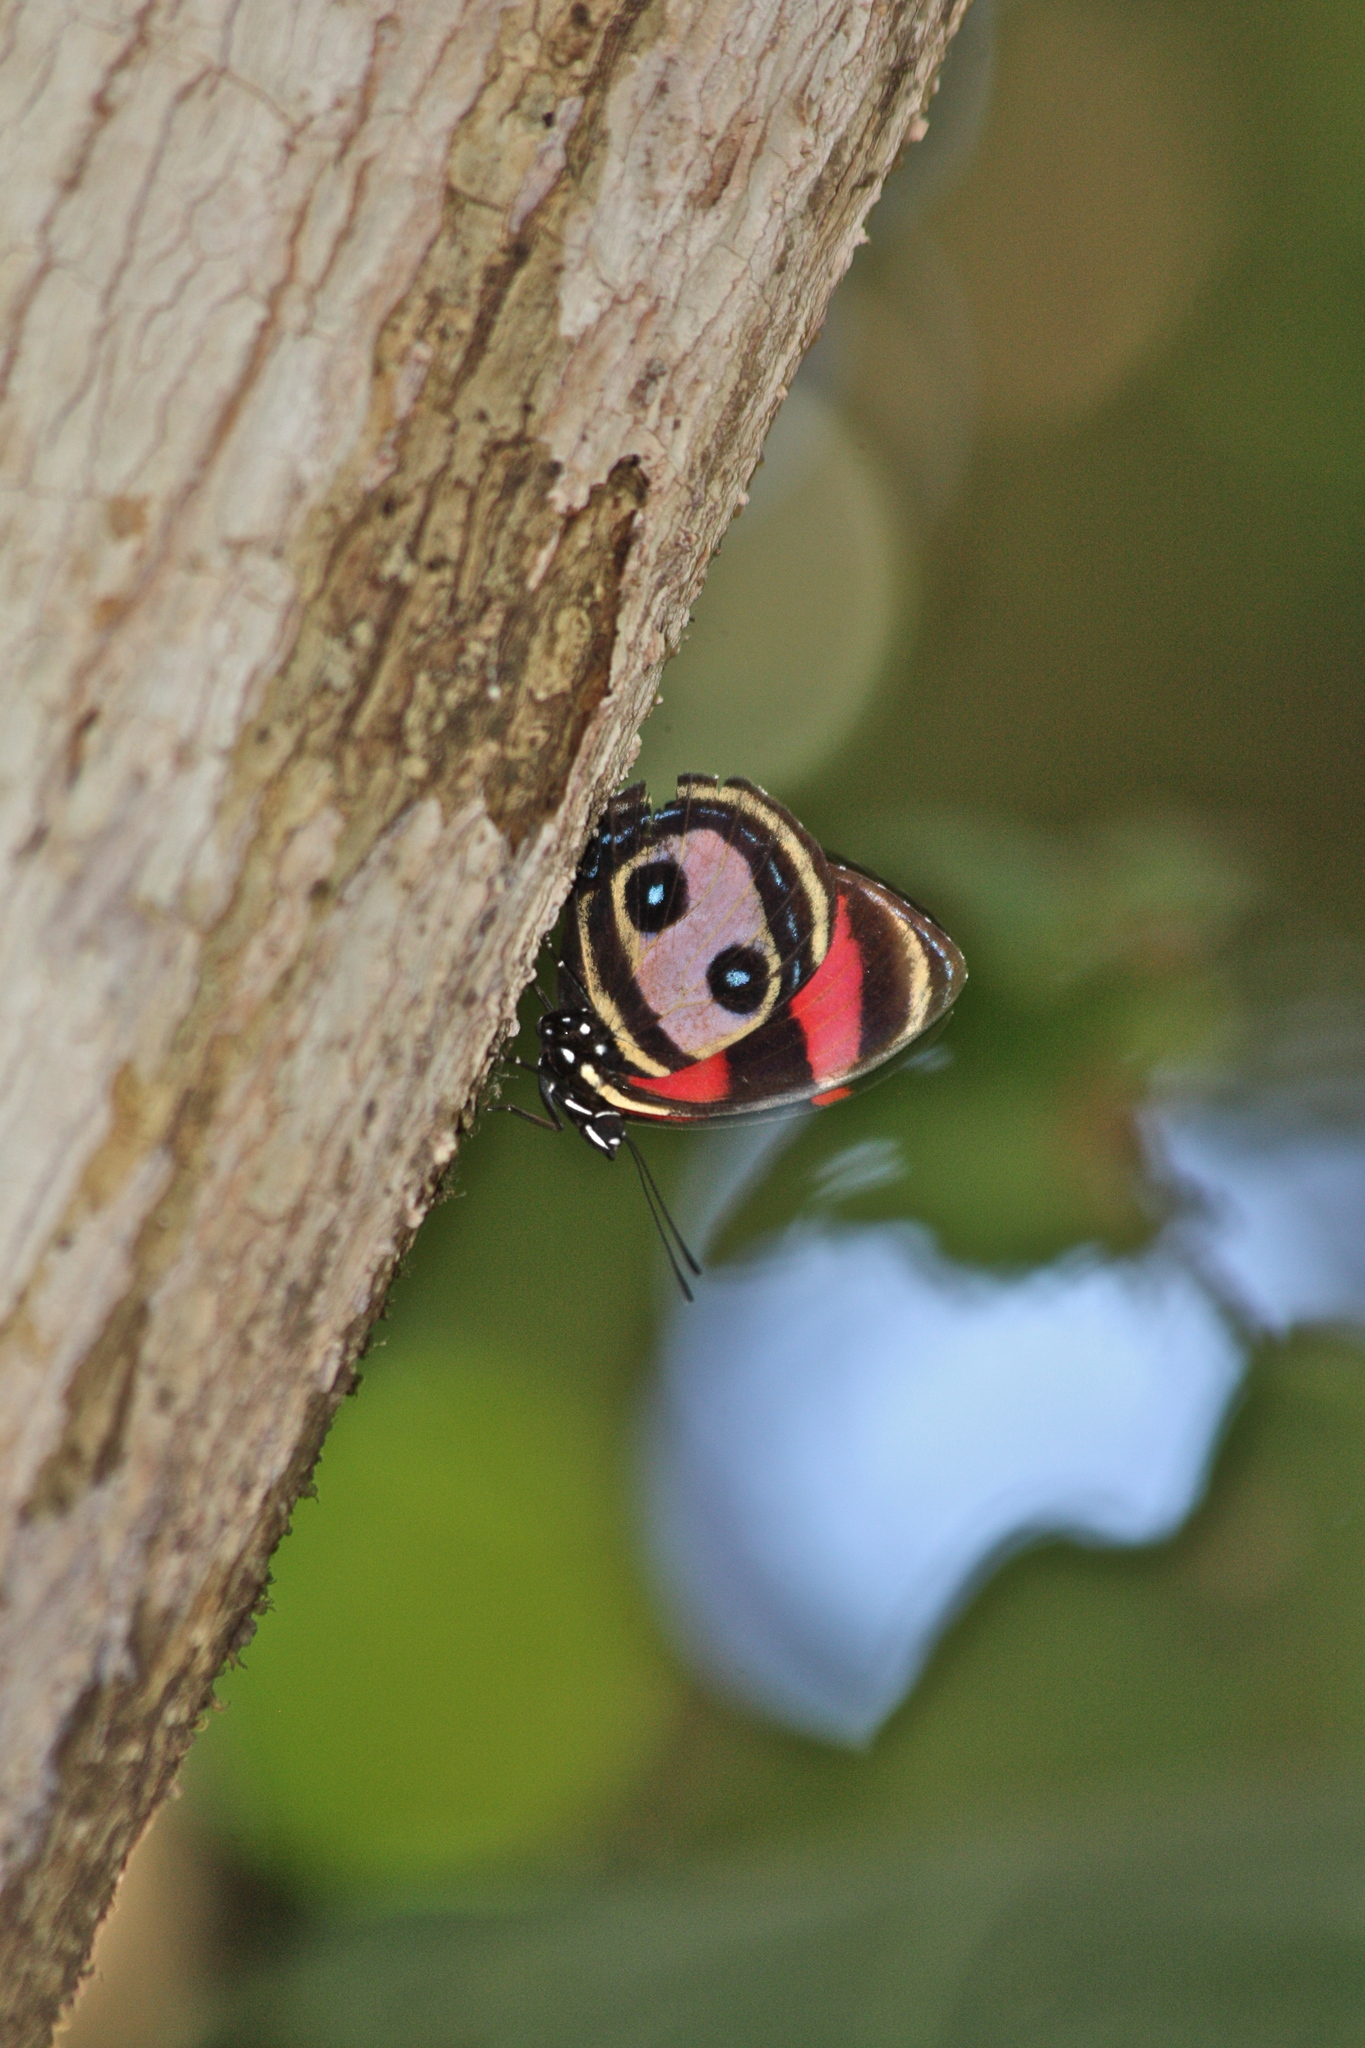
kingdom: Animalia
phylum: Arthropoda
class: Insecta
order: Lepidoptera
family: Nymphalidae
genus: Catagramma
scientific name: Catagramma Callicore pitheas
